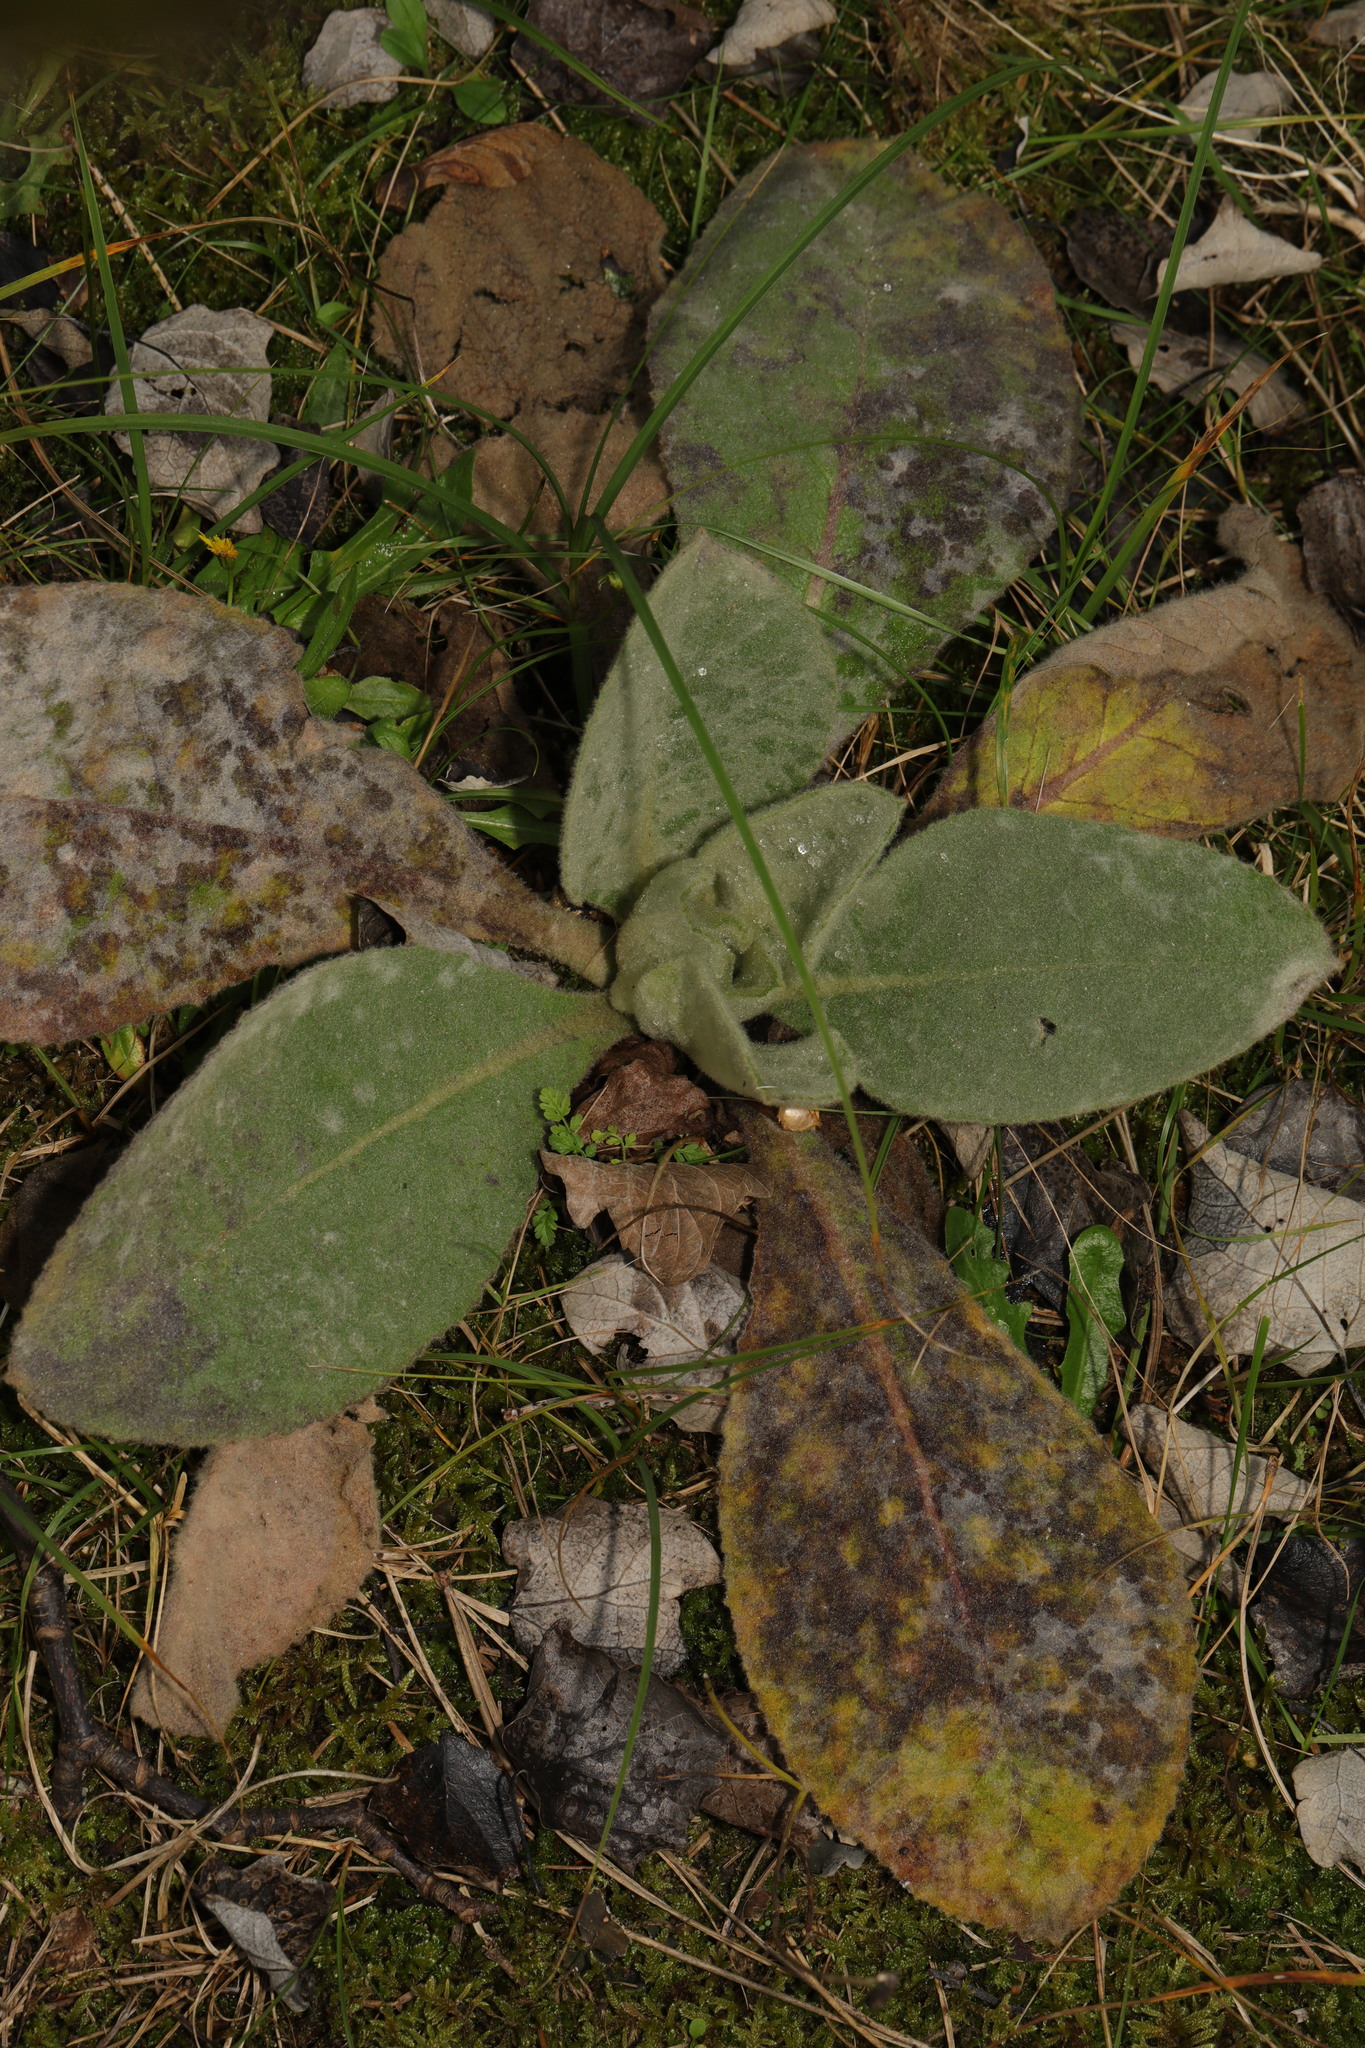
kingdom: Plantae
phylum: Tracheophyta
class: Magnoliopsida
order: Lamiales
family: Scrophulariaceae
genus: Verbascum
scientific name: Verbascum thapsus
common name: Common mullein
